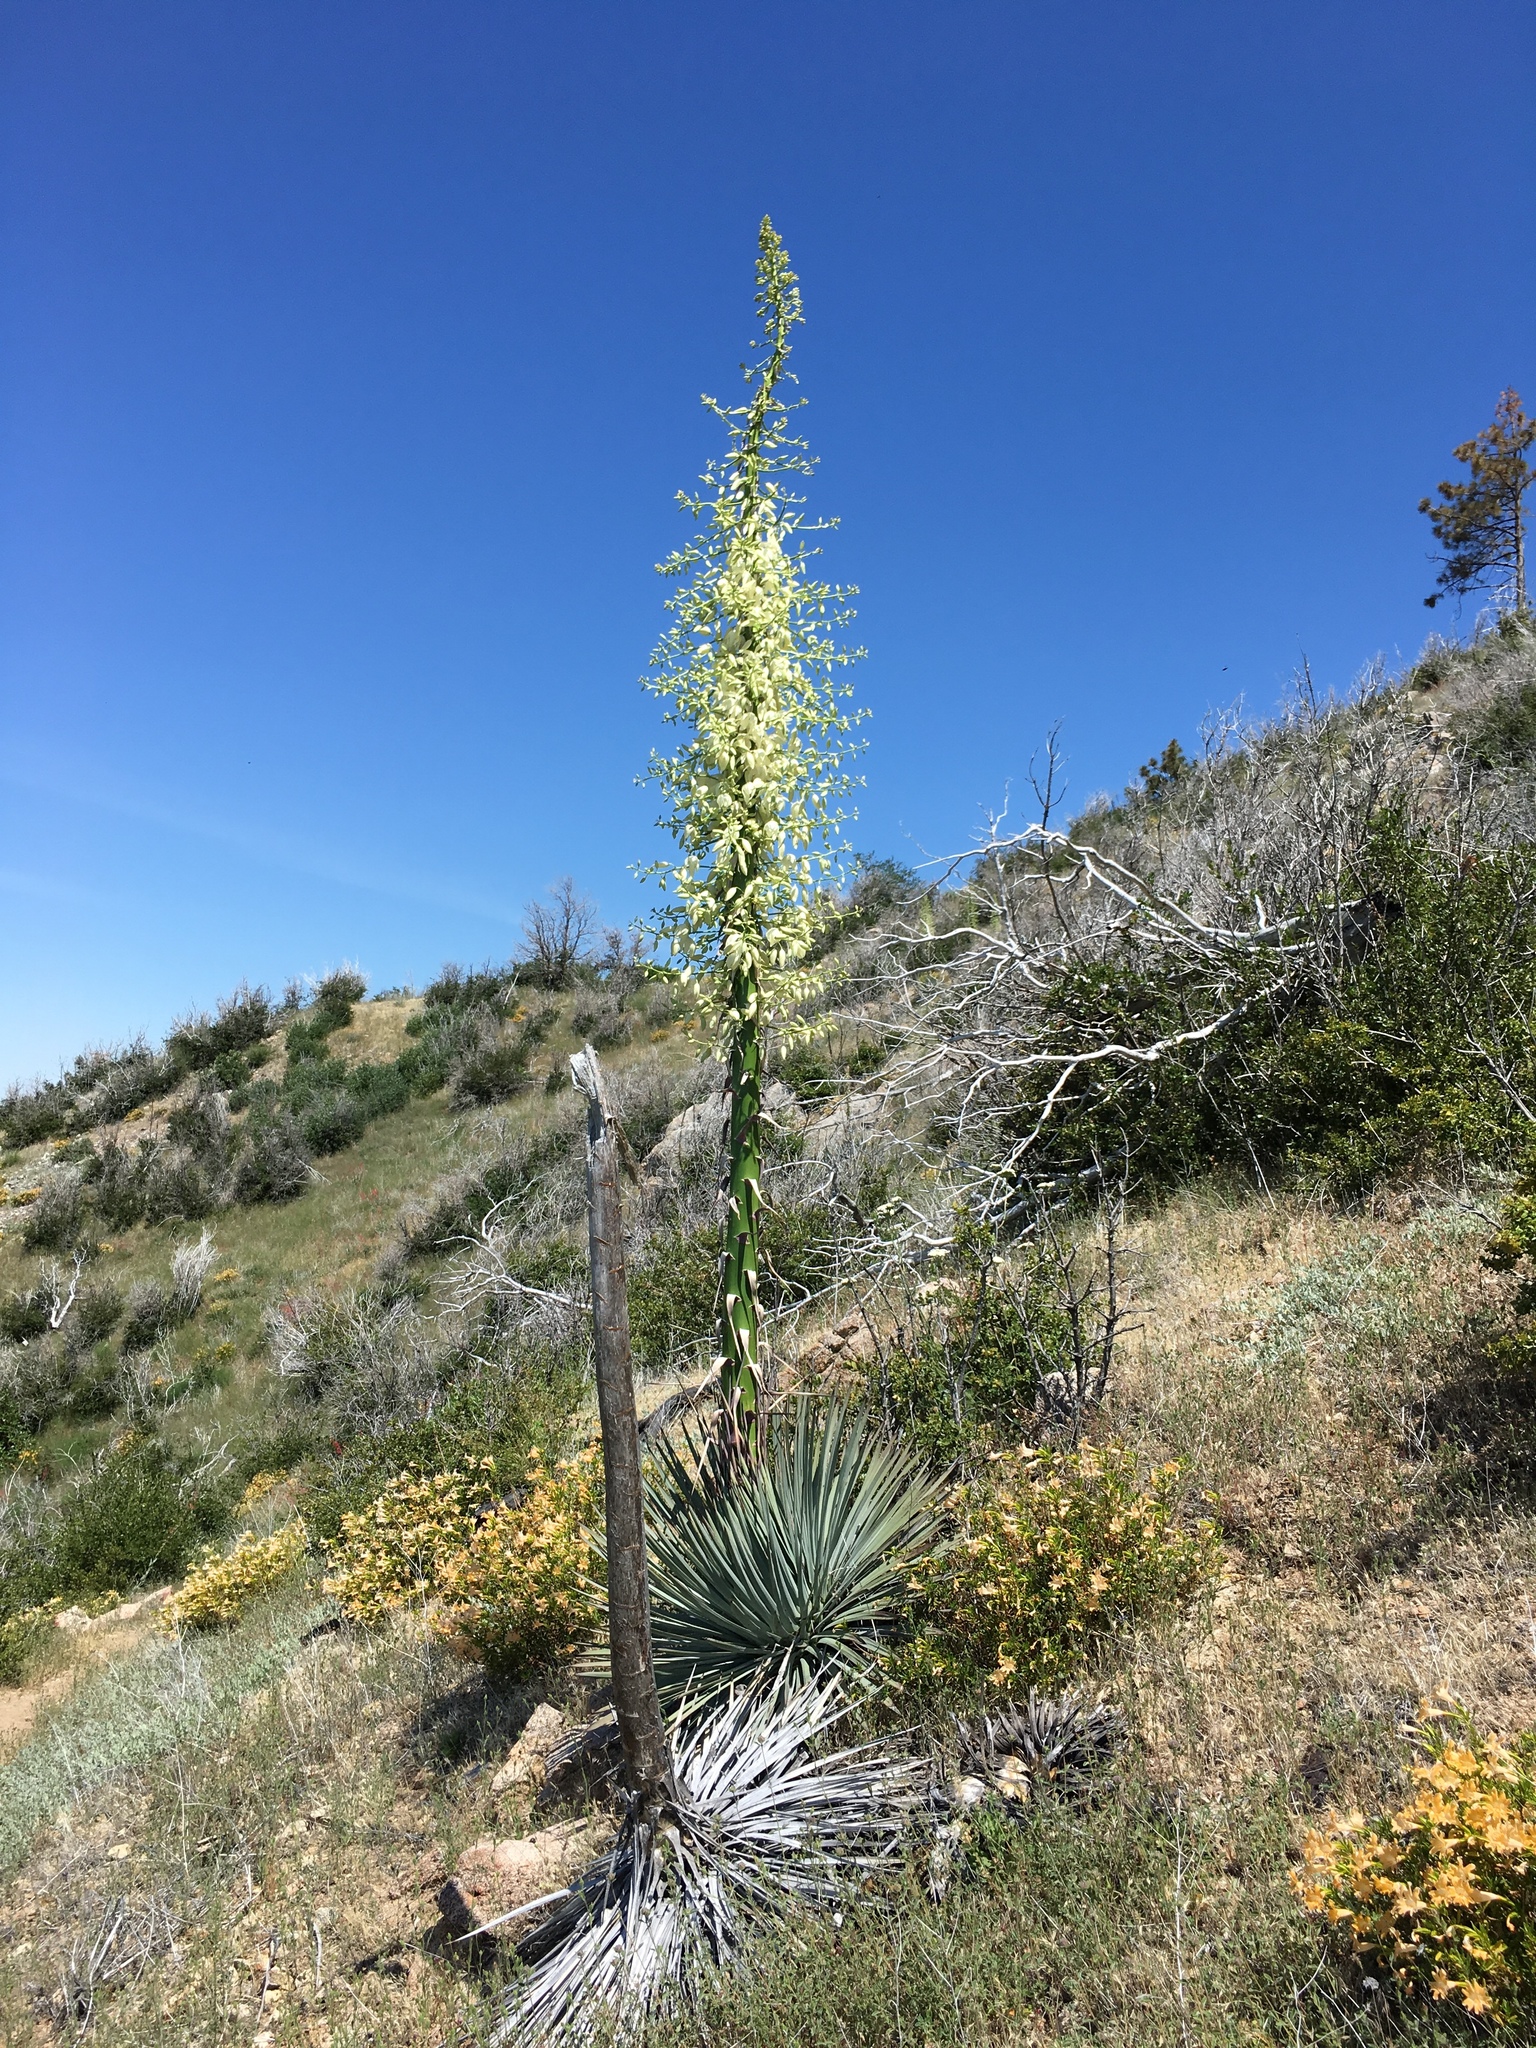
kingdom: Plantae
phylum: Tracheophyta
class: Liliopsida
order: Asparagales
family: Asparagaceae
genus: Hesperoyucca
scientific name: Hesperoyucca whipplei
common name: Our lord's-candle
